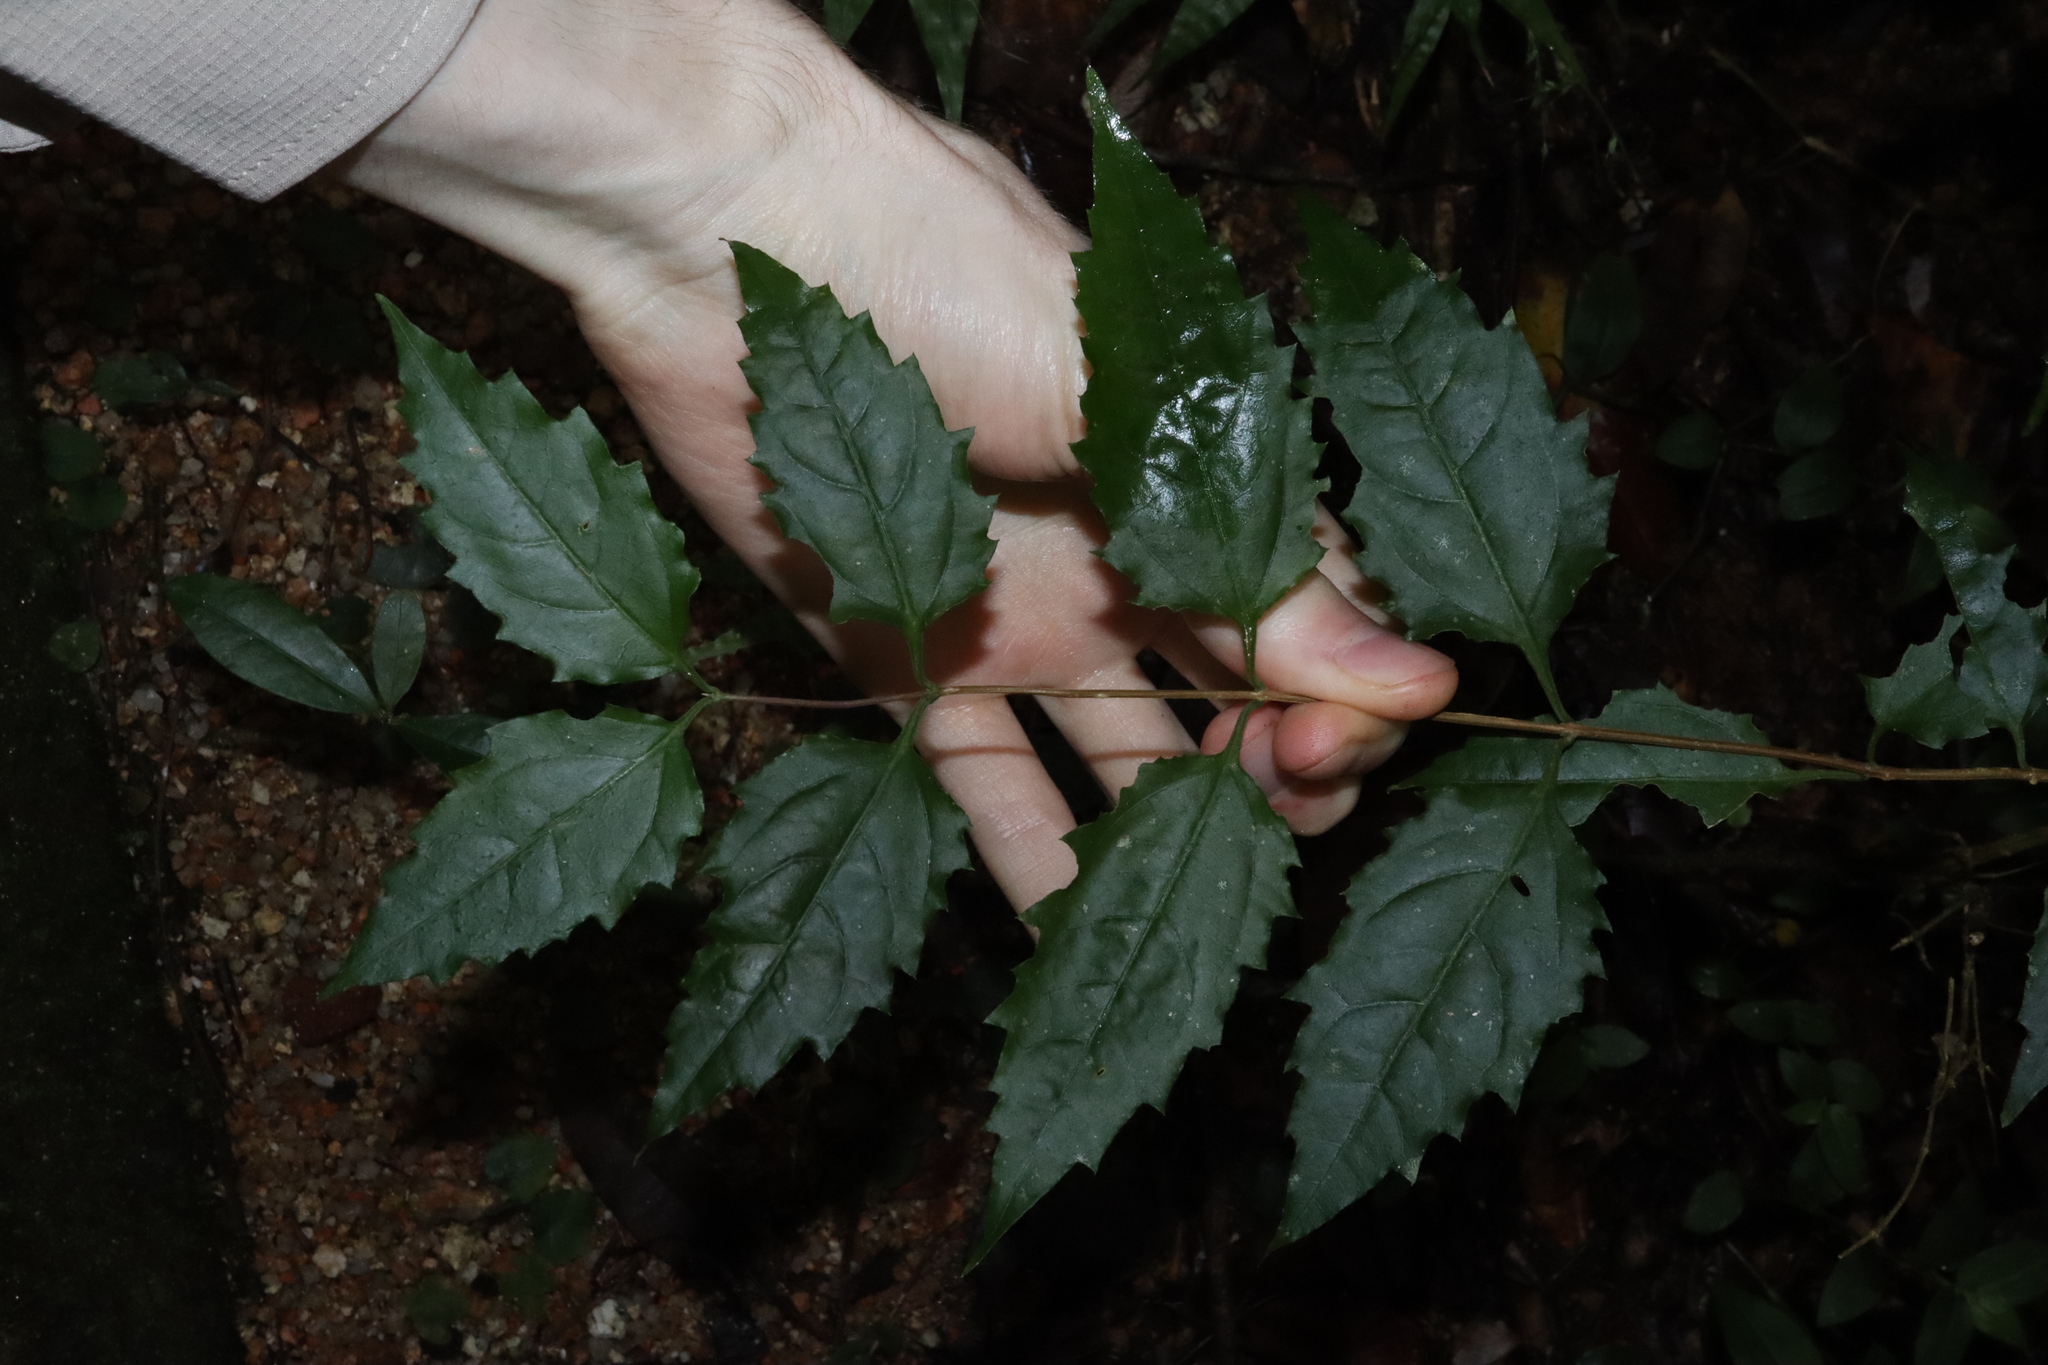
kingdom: Plantae
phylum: Tracheophyta
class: Magnoliopsida
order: Lamiales
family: Lamiaceae
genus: Glossocarya
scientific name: Glossocarya hemiderma
